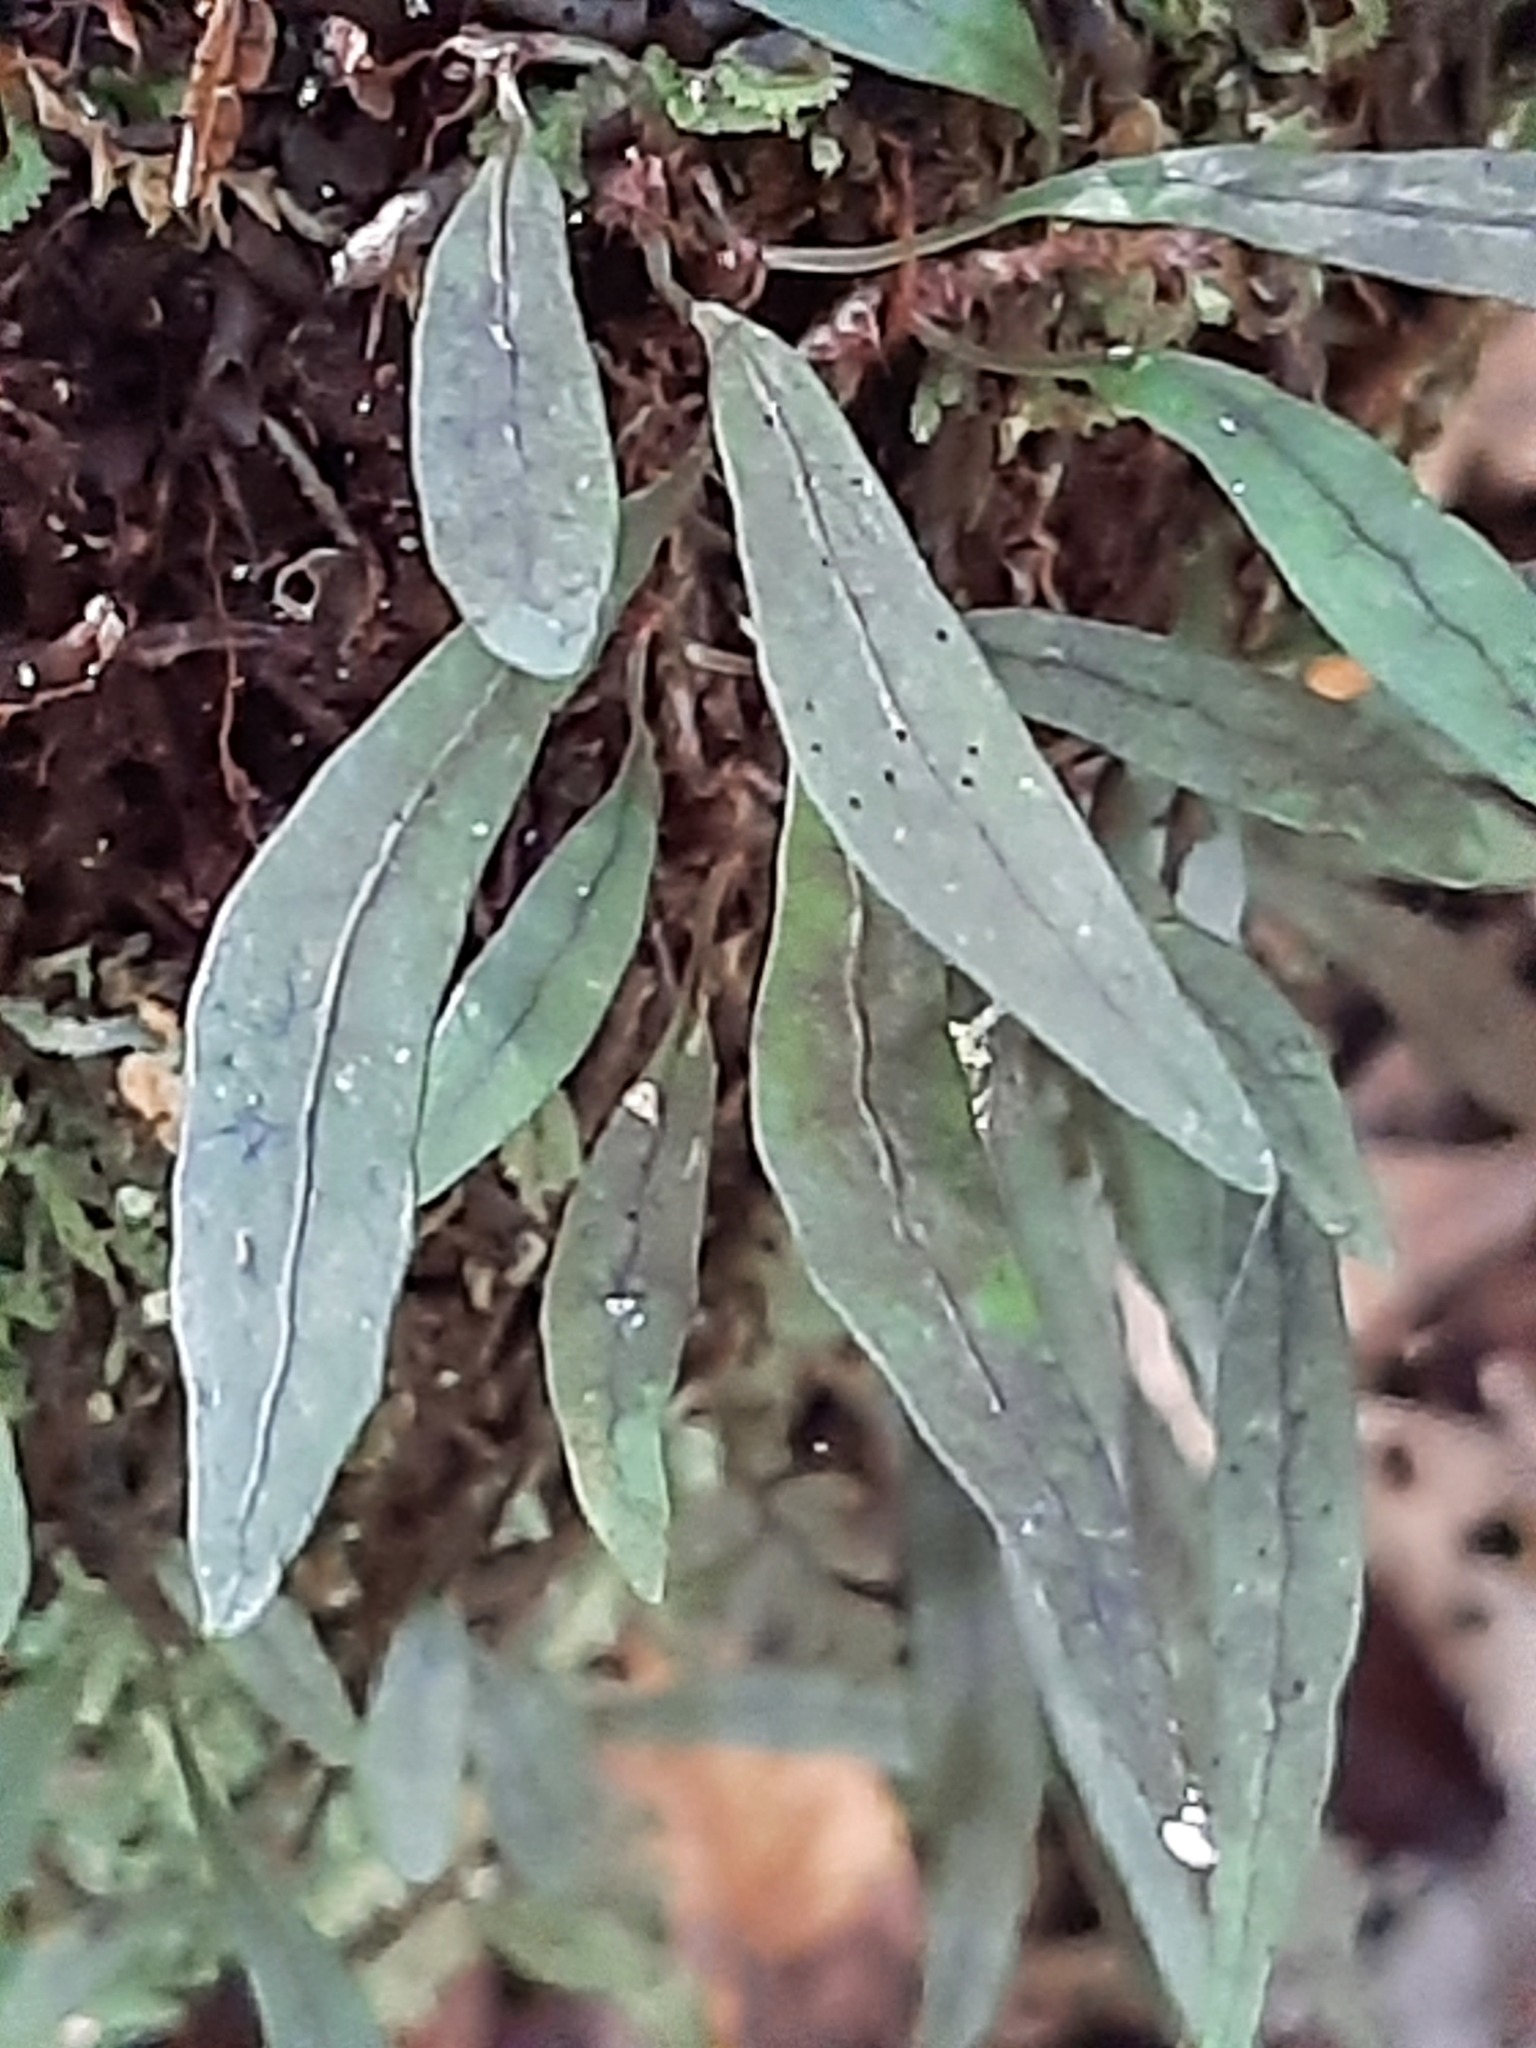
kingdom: Plantae
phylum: Tracheophyta
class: Polypodiopsida
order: Polypodiales
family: Polypodiaceae
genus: Lecanopteris
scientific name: Lecanopteris scandens
